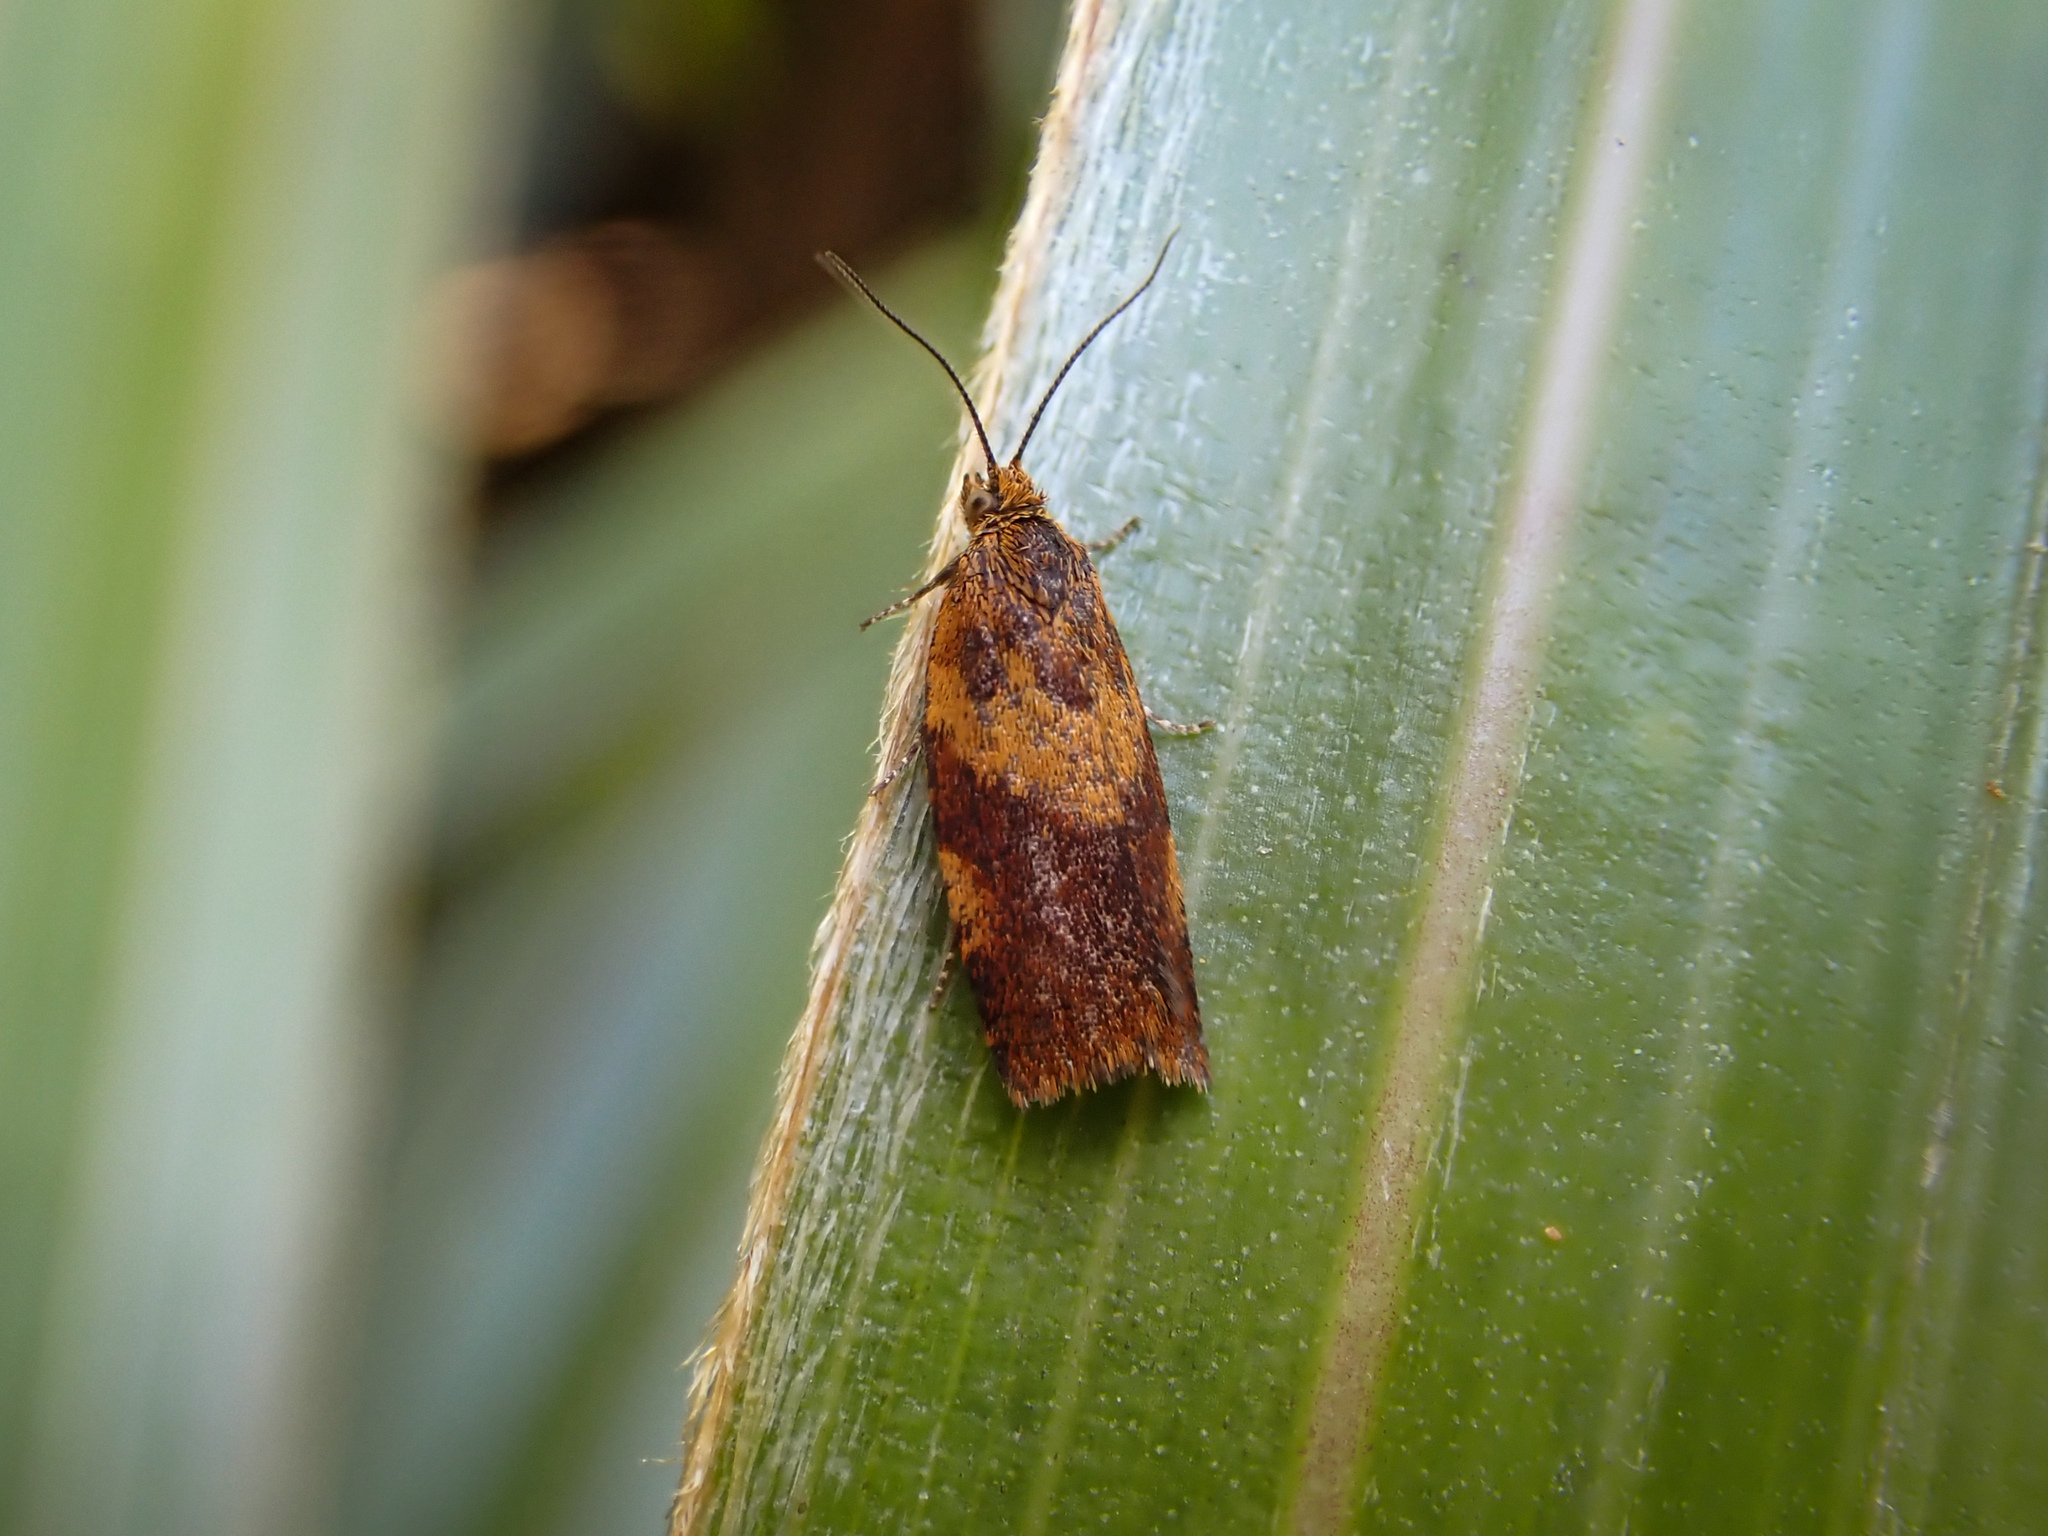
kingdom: Animalia
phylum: Arthropoda
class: Insecta
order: Lepidoptera
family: Tortricidae
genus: Tortrix
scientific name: Tortrix zestodes
